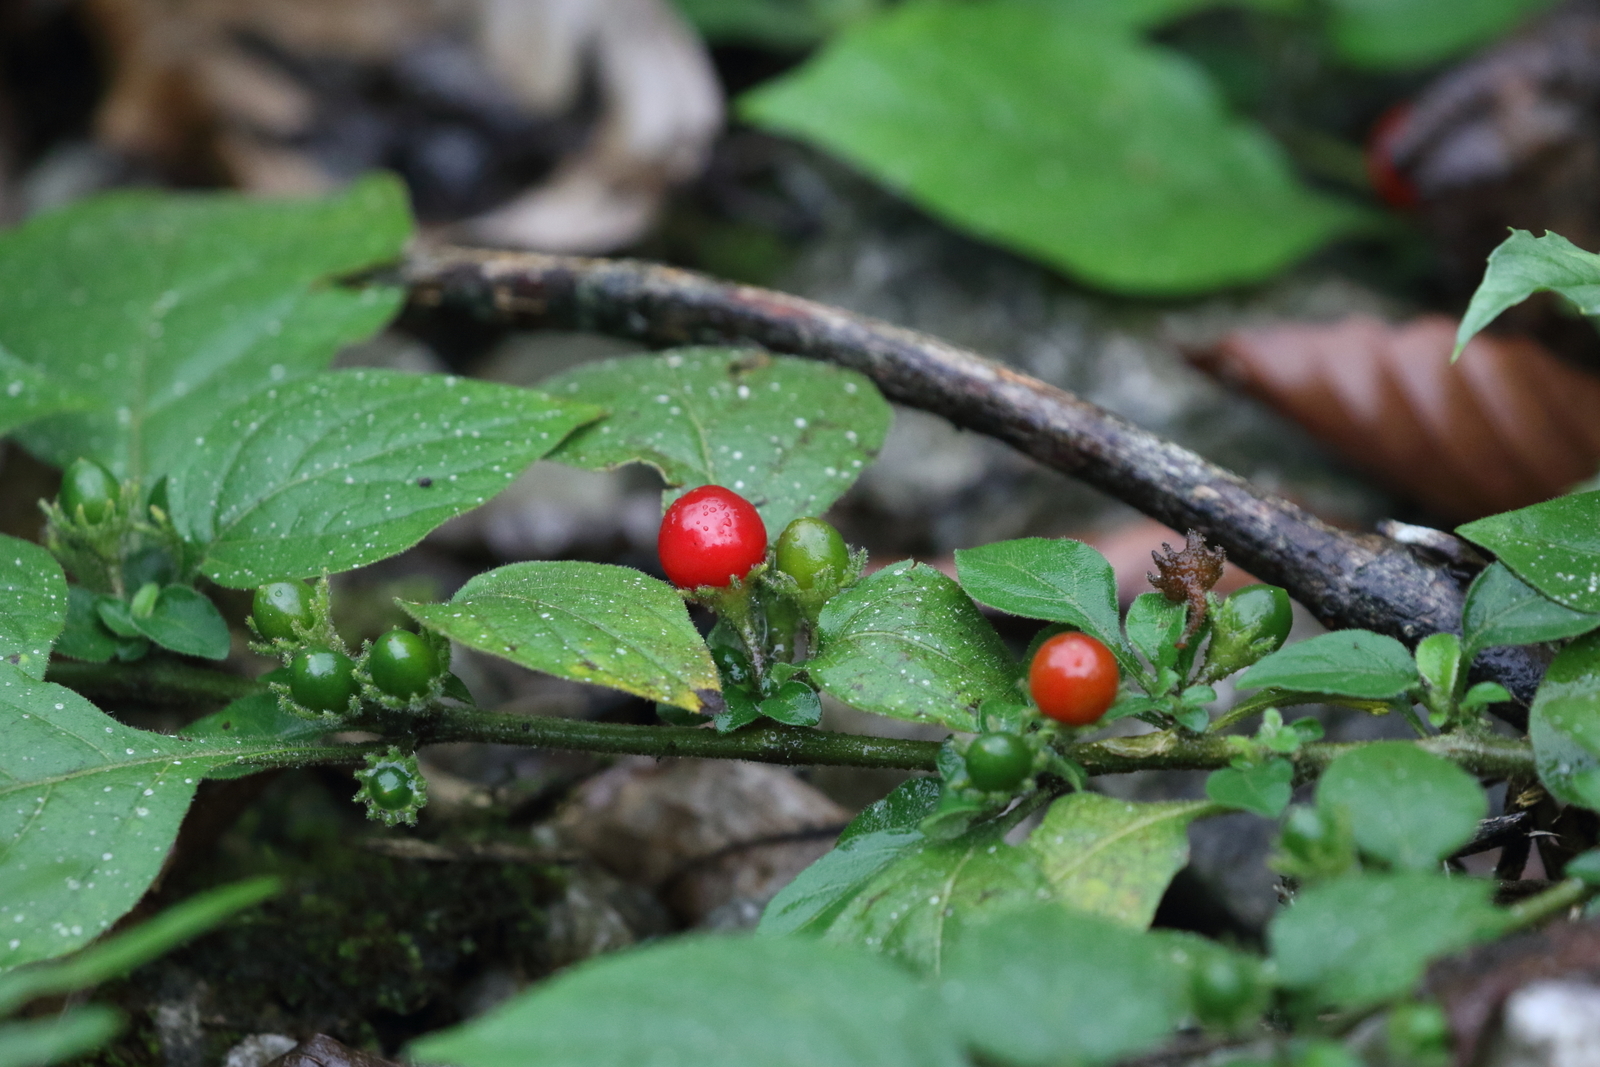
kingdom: Plantae
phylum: Tracheophyta
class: Magnoliopsida
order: Solanales
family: Solanaceae
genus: Lycianthes
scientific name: Lycianthes biflora
